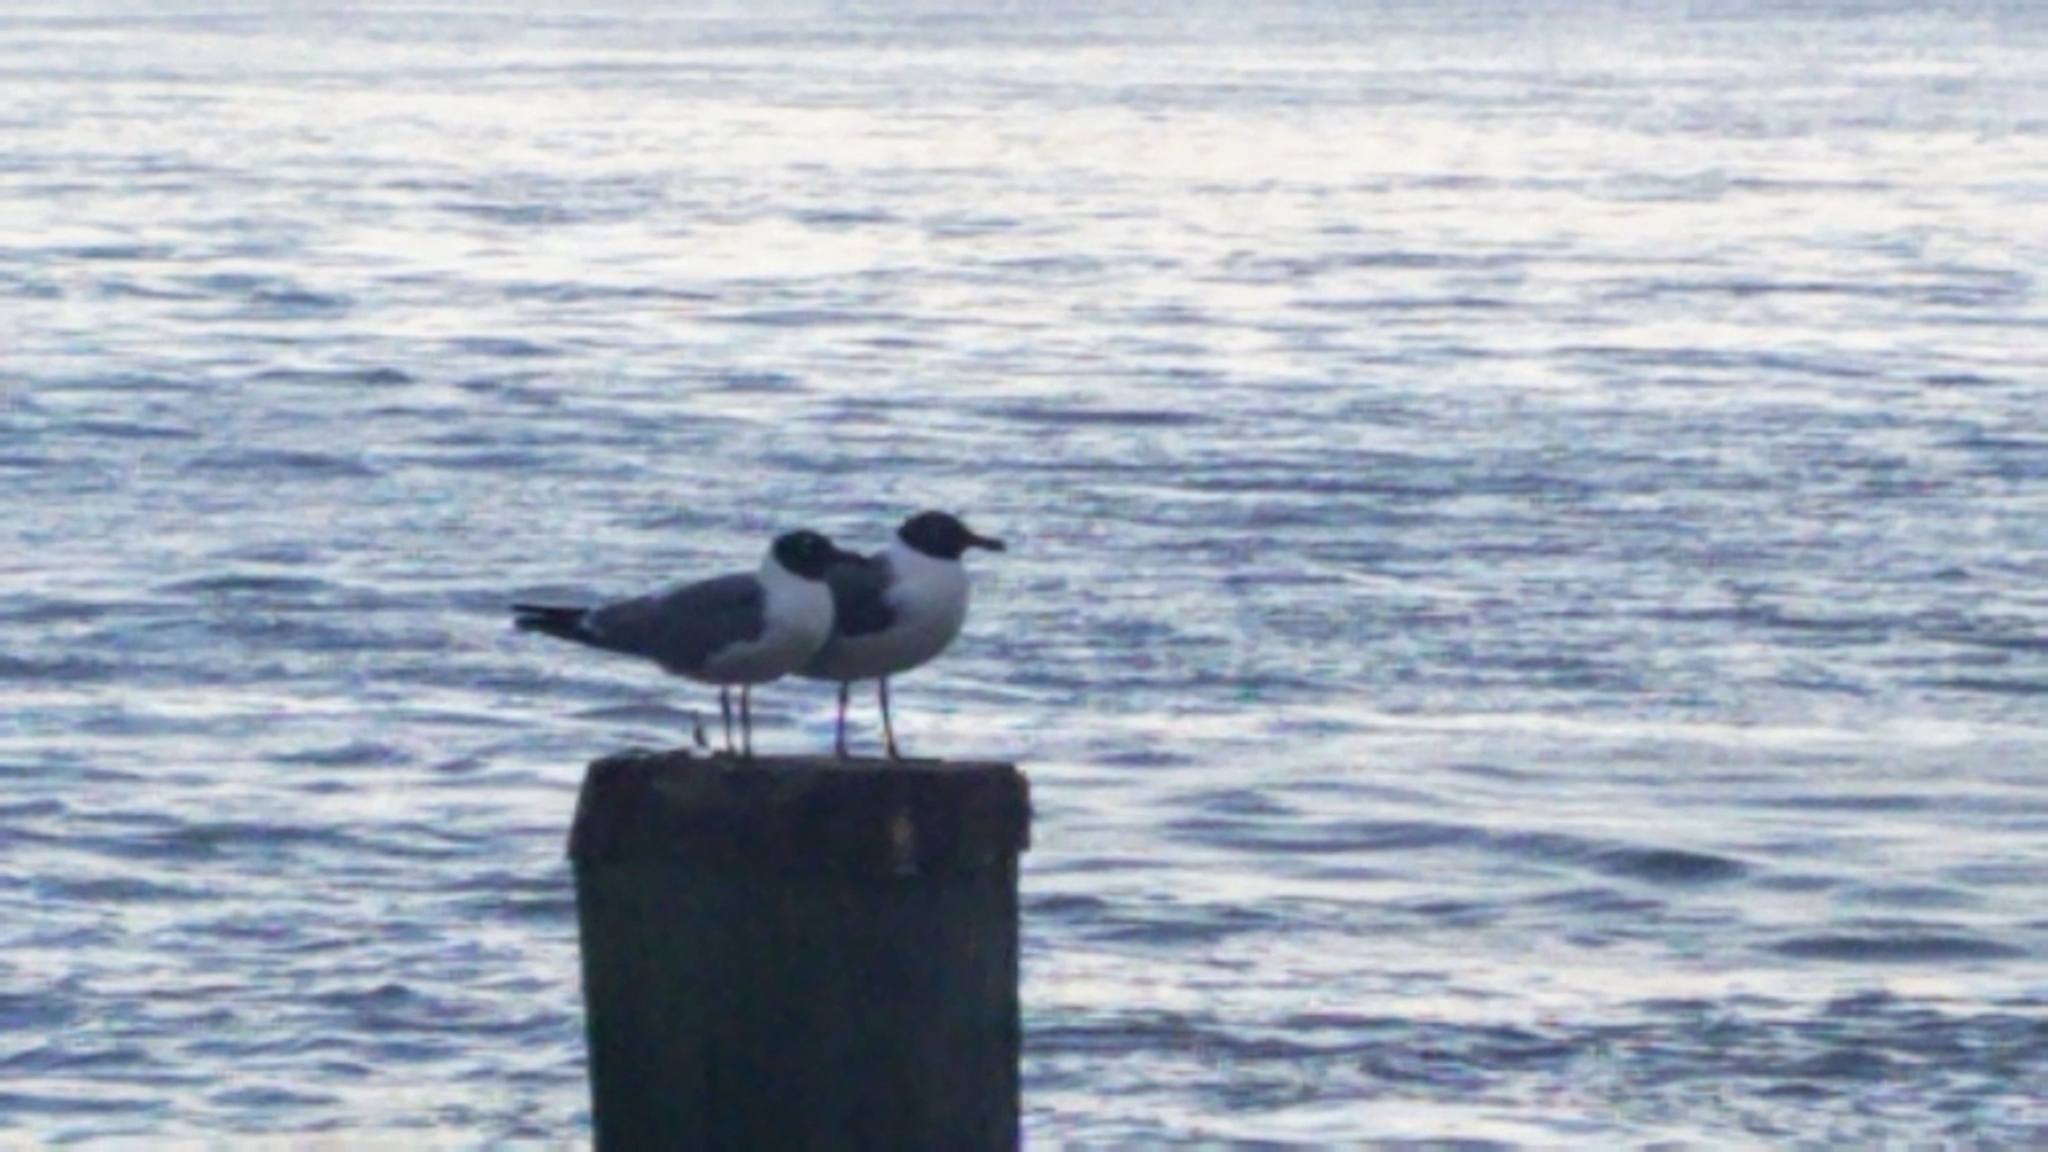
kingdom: Animalia
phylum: Chordata
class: Aves
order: Charadriiformes
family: Laridae
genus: Leucophaeus
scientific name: Leucophaeus atricilla
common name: Laughing gull
